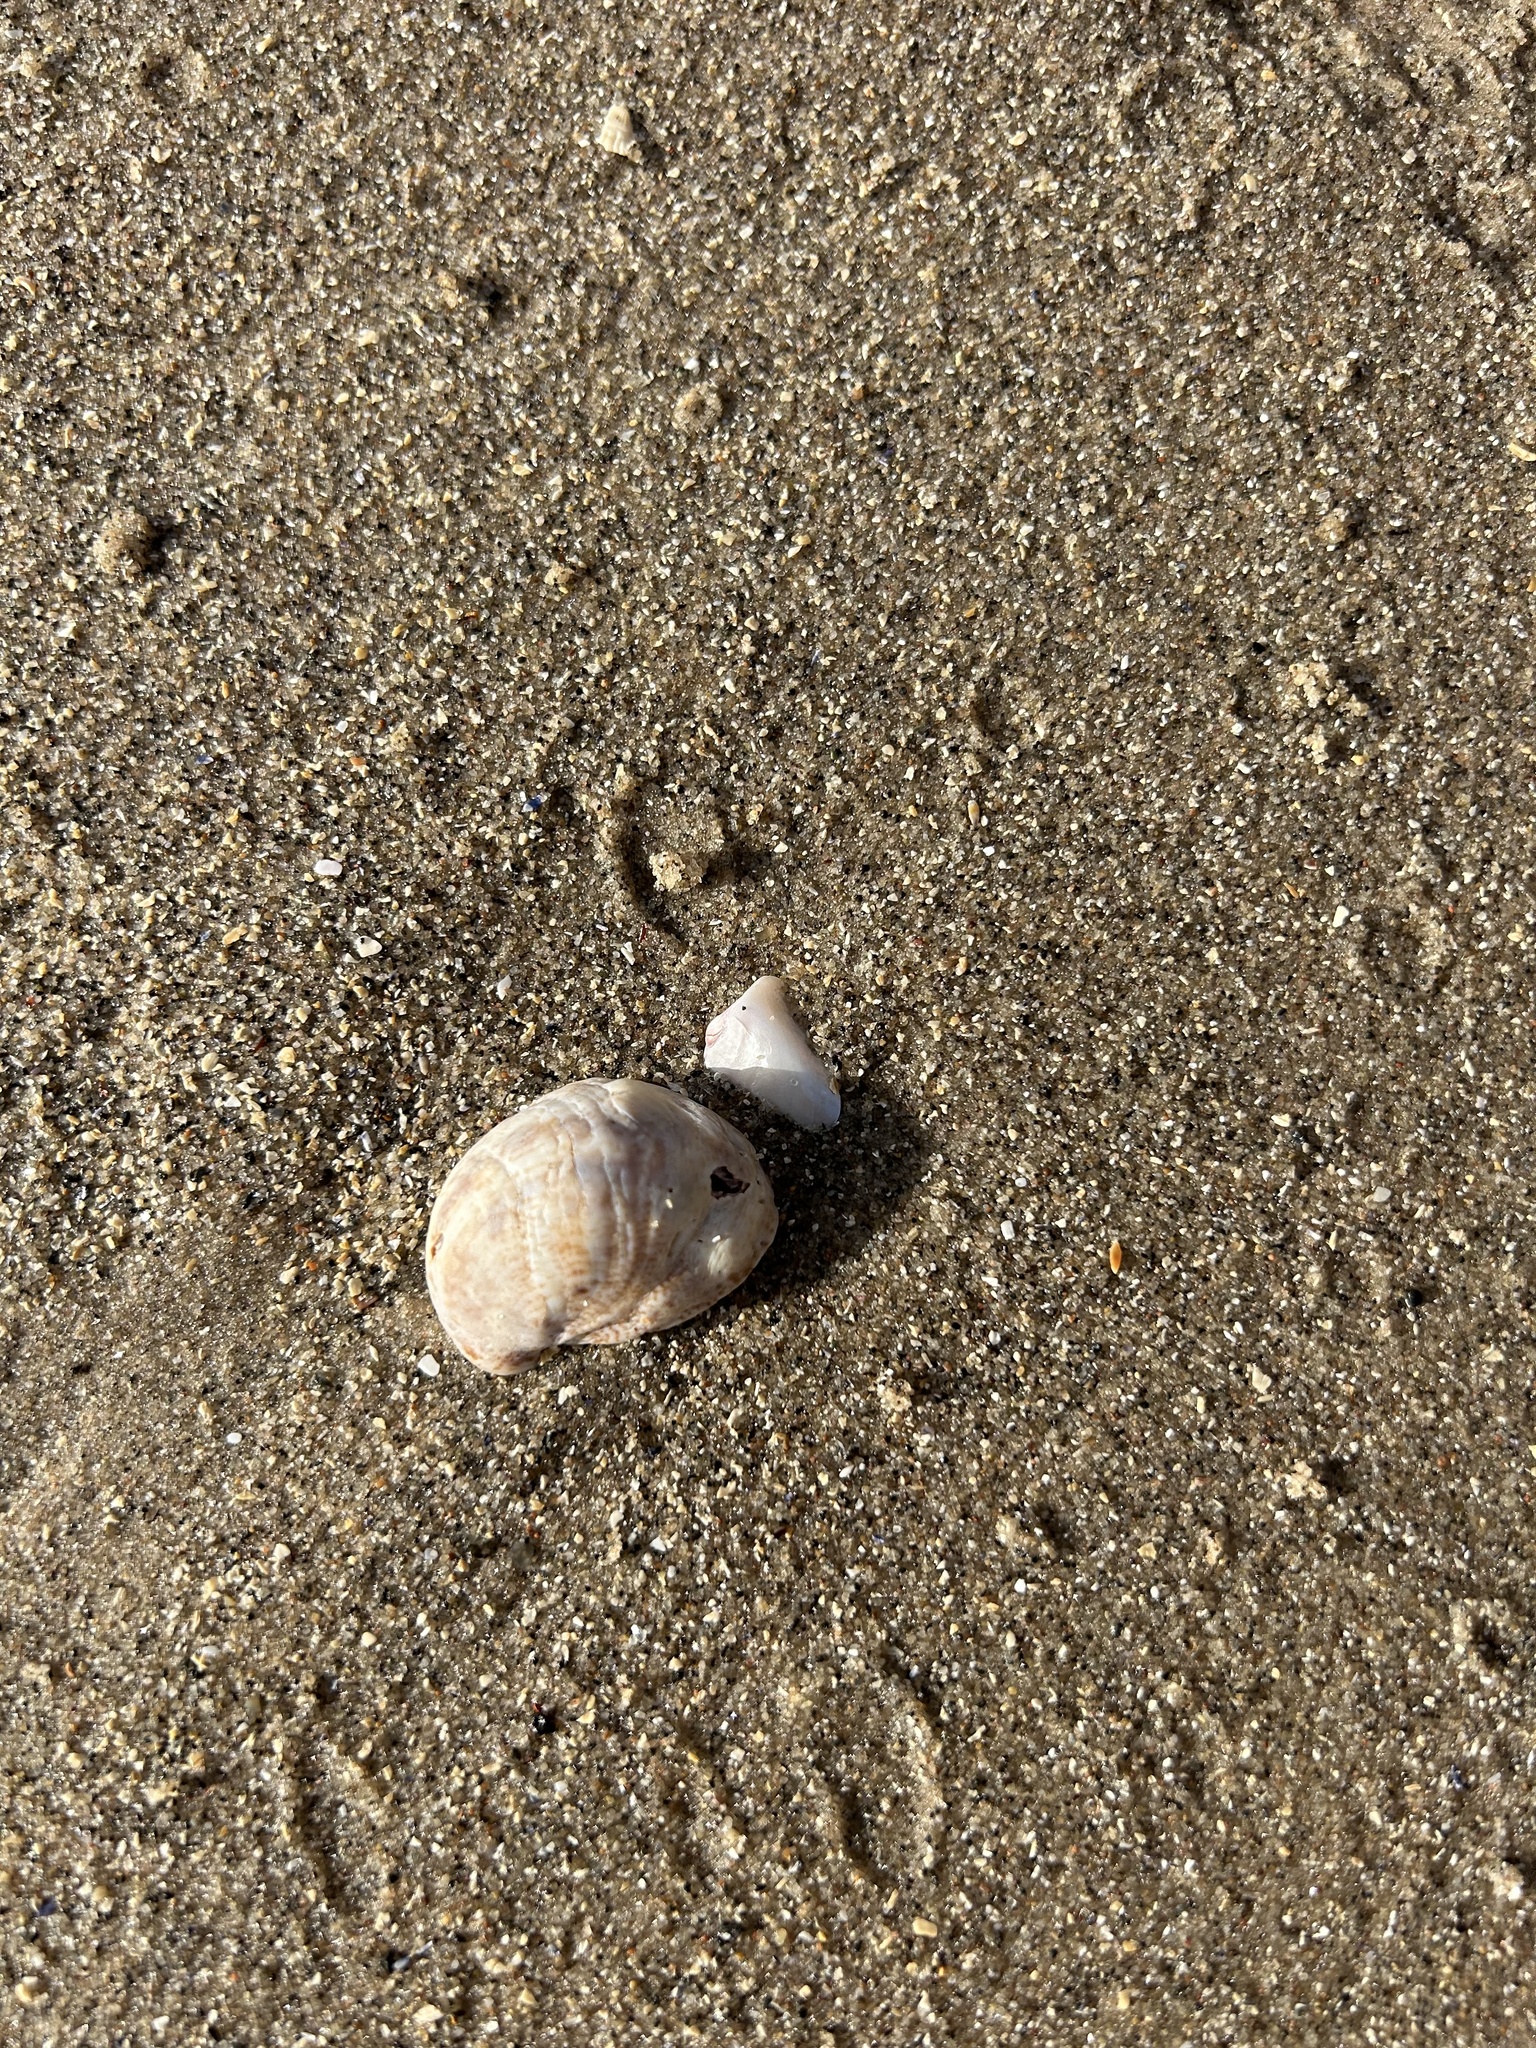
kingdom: Animalia
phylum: Mollusca
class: Gastropoda
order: Littorinimorpha
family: Calyptraeidae
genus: Crepidula
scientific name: Crepidula fornicata
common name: Slipper limpet
